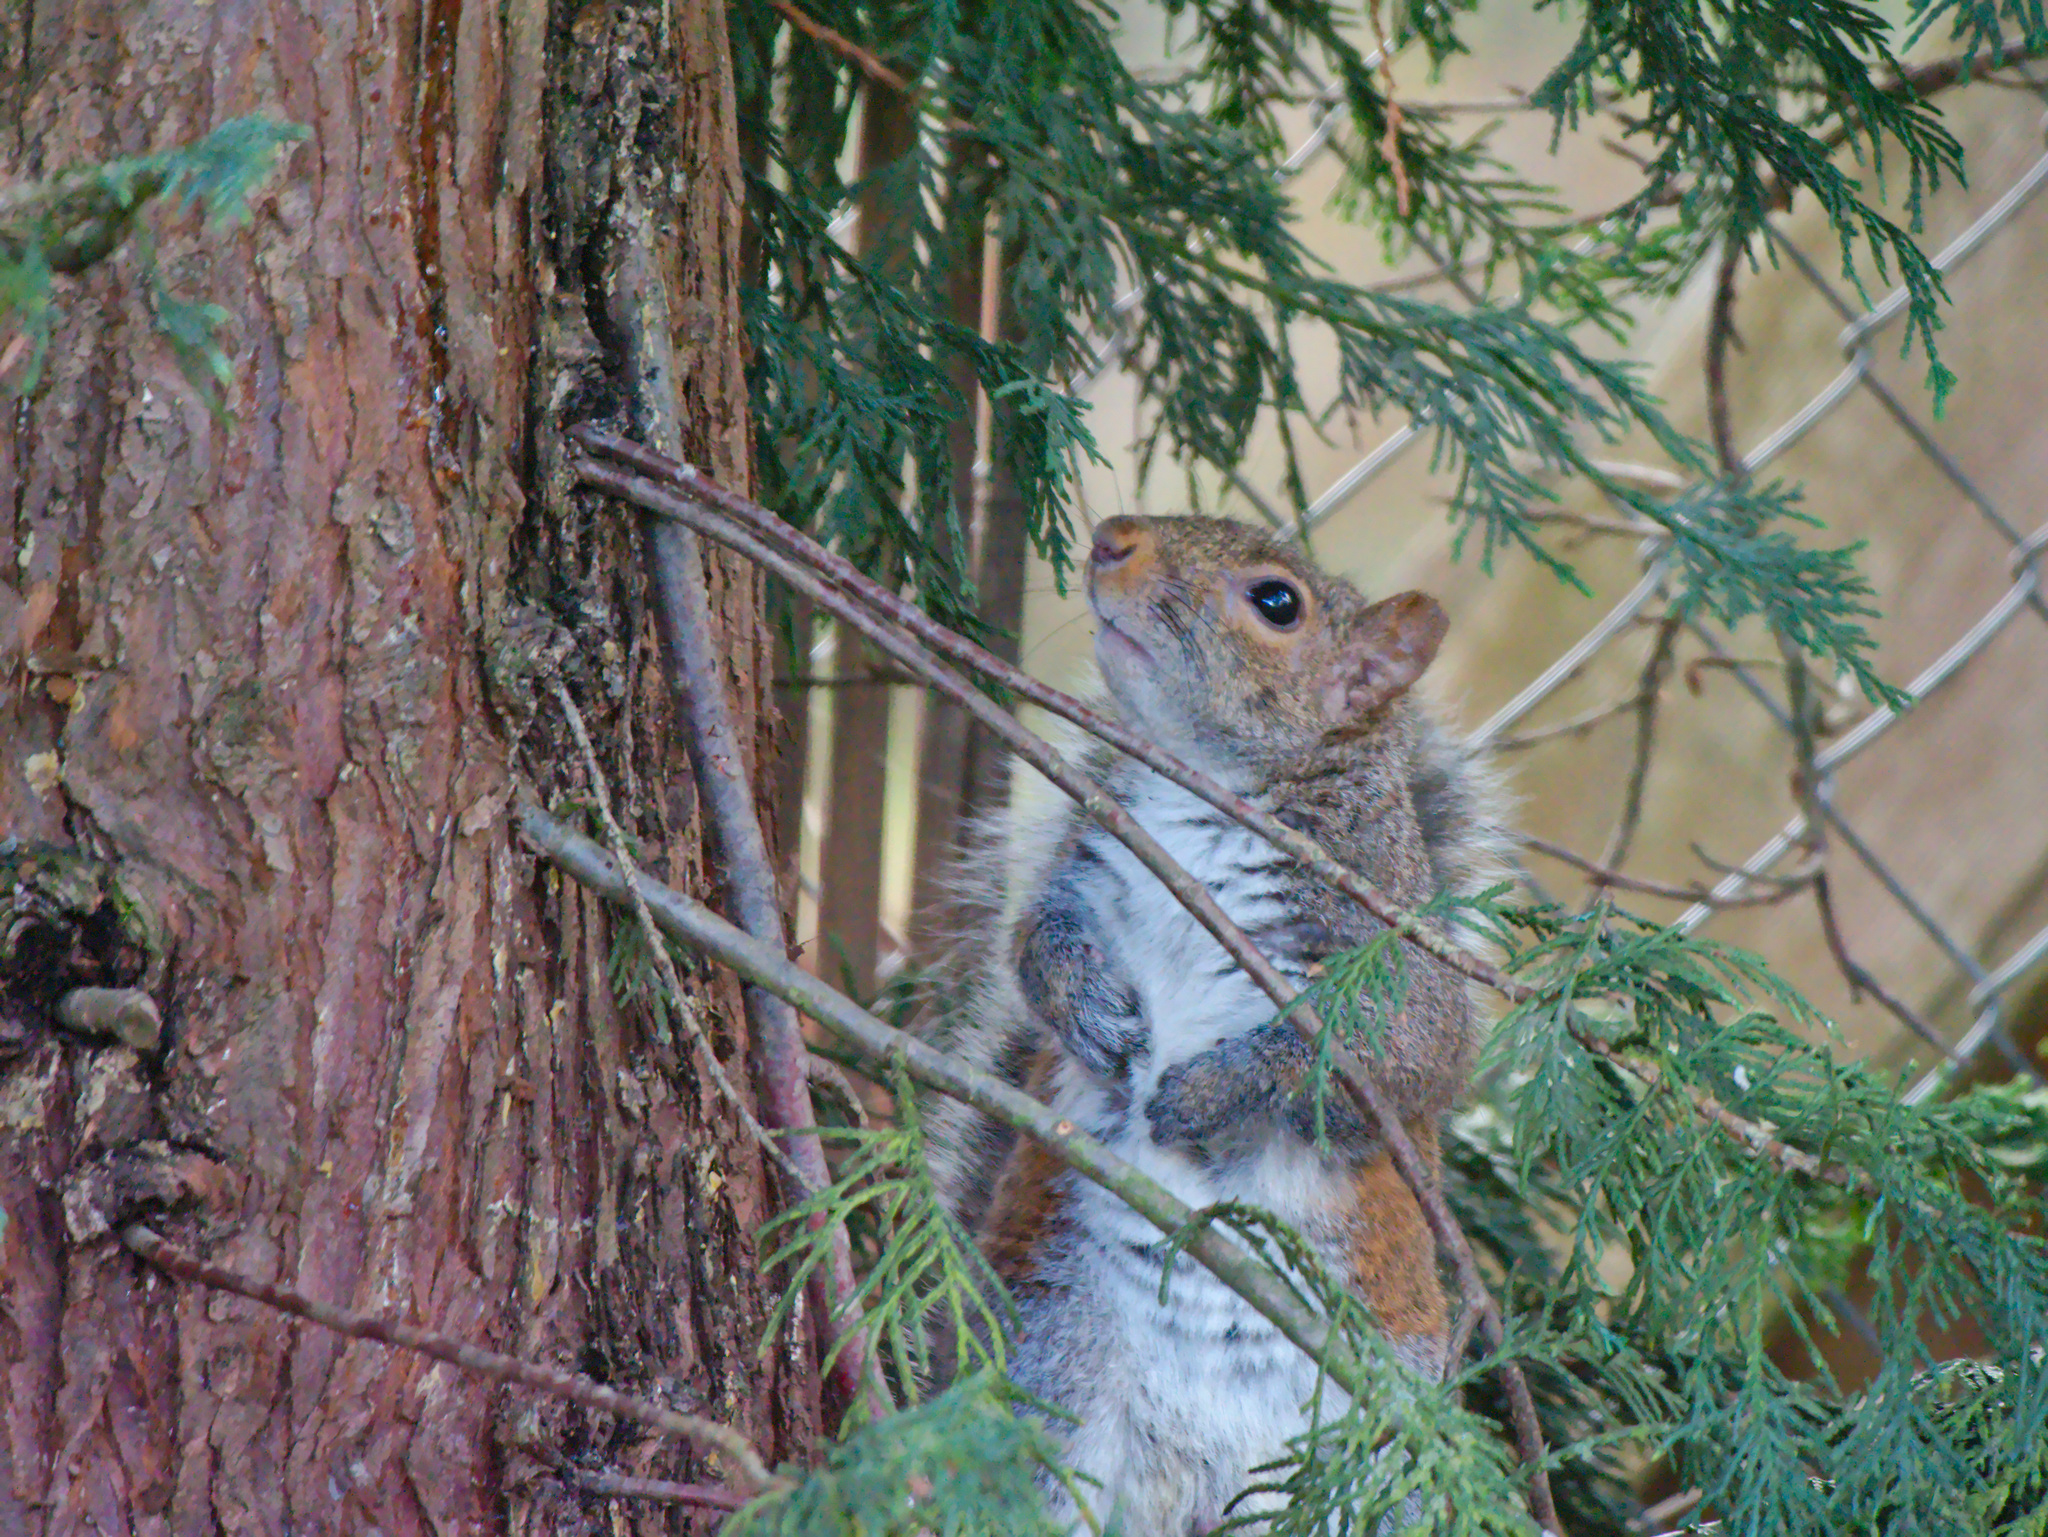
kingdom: Animalia
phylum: Chordata
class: Mammalia
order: Rodentia
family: Sciuridae
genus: Sciurus
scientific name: Sciurus carolinensis
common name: Eastern gray squirrel
